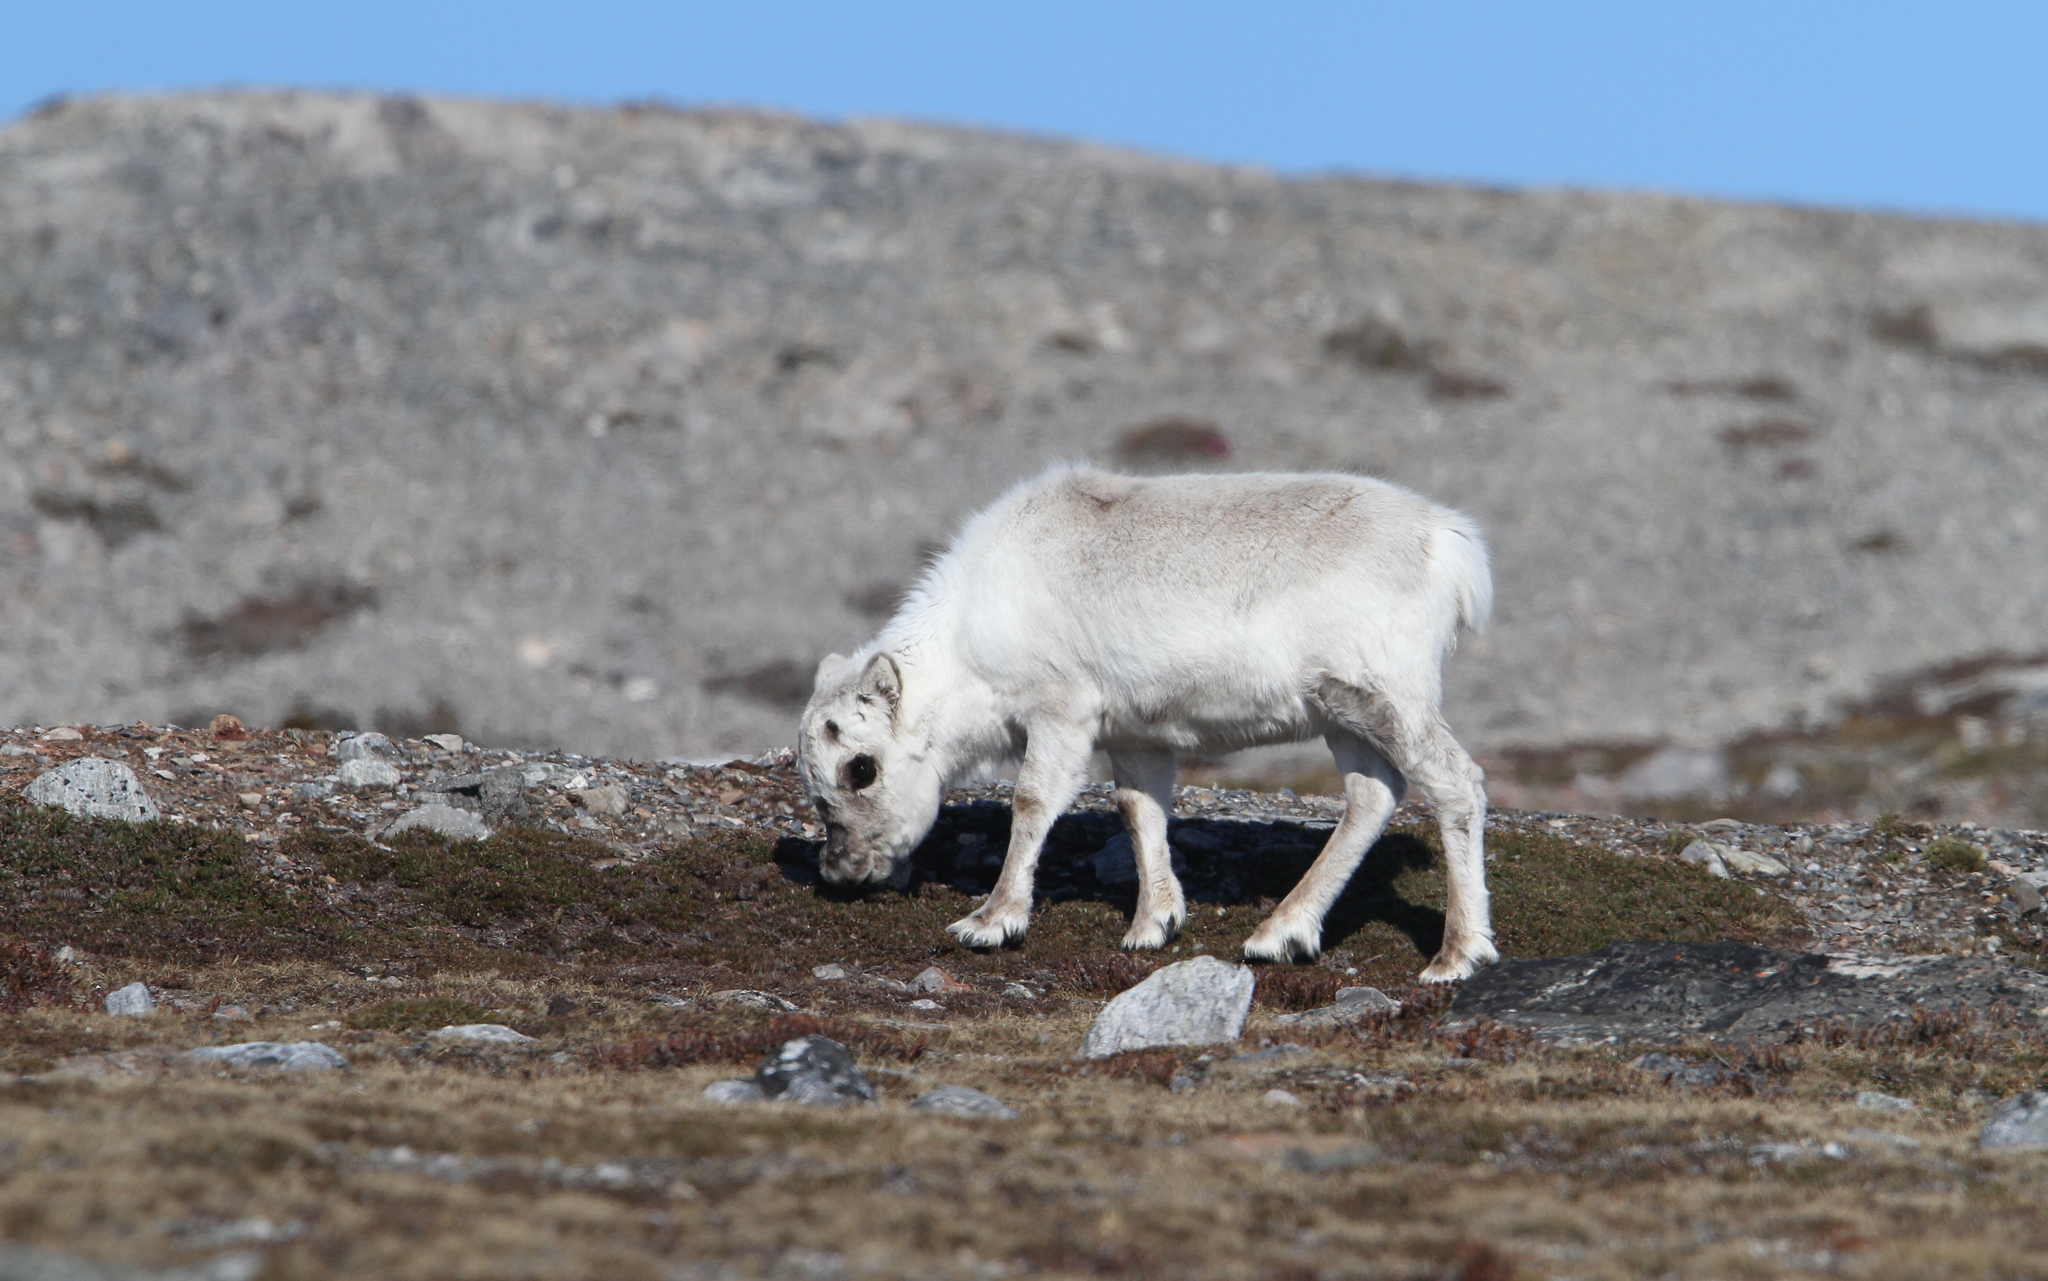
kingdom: Animalia
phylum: Chordata
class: Mammalia
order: Artiodactyla
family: Cervidae
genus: Rangifer
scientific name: Rangifer tarandus
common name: Reindeer
